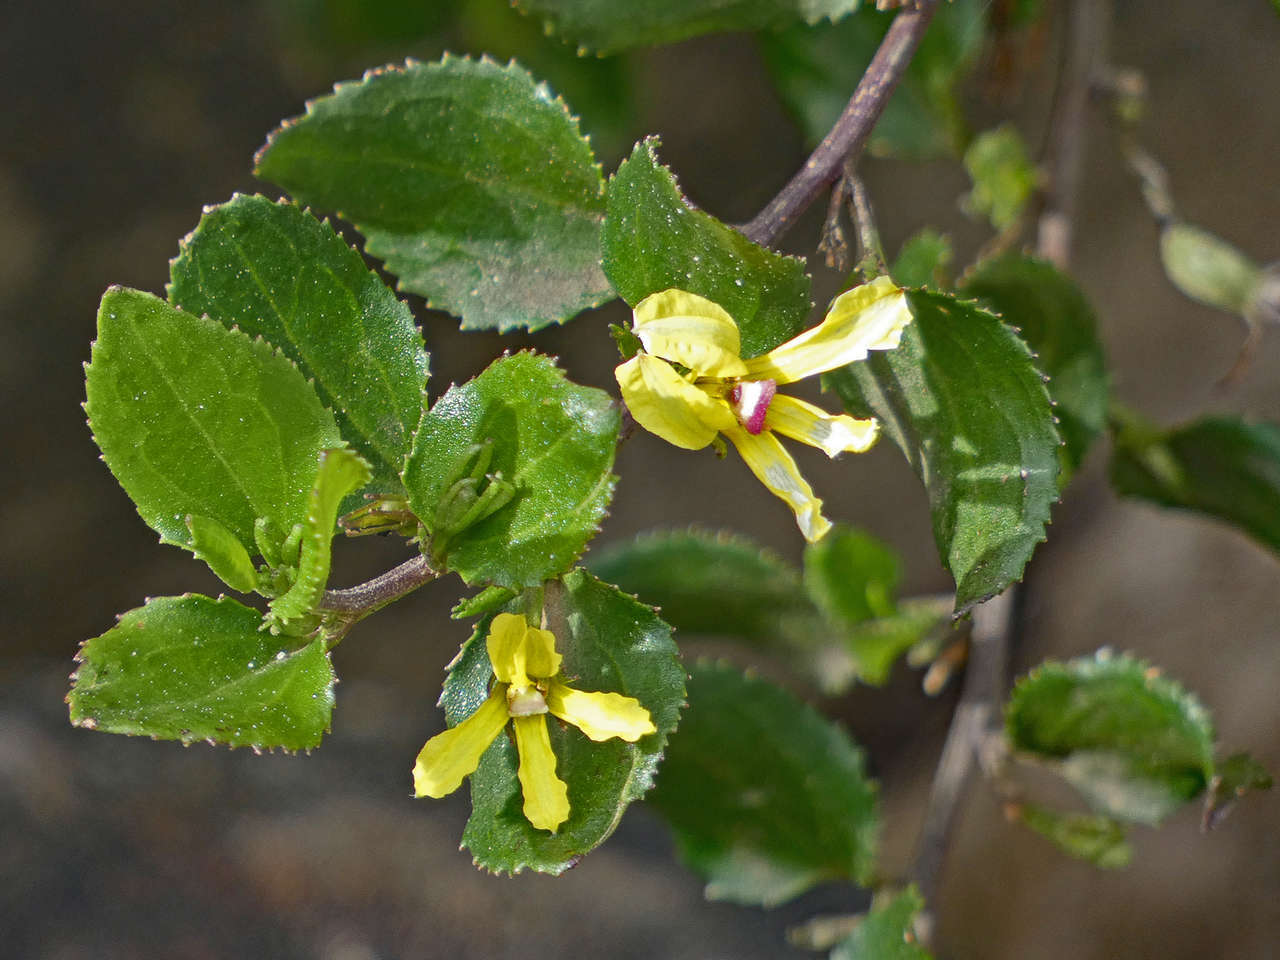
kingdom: Plantae
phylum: Tracheophyta
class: Magnoliopsida
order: Asterales
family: Goodeniaceae
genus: Goodenia
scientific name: Goodenia ovata
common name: Hop goodenia
